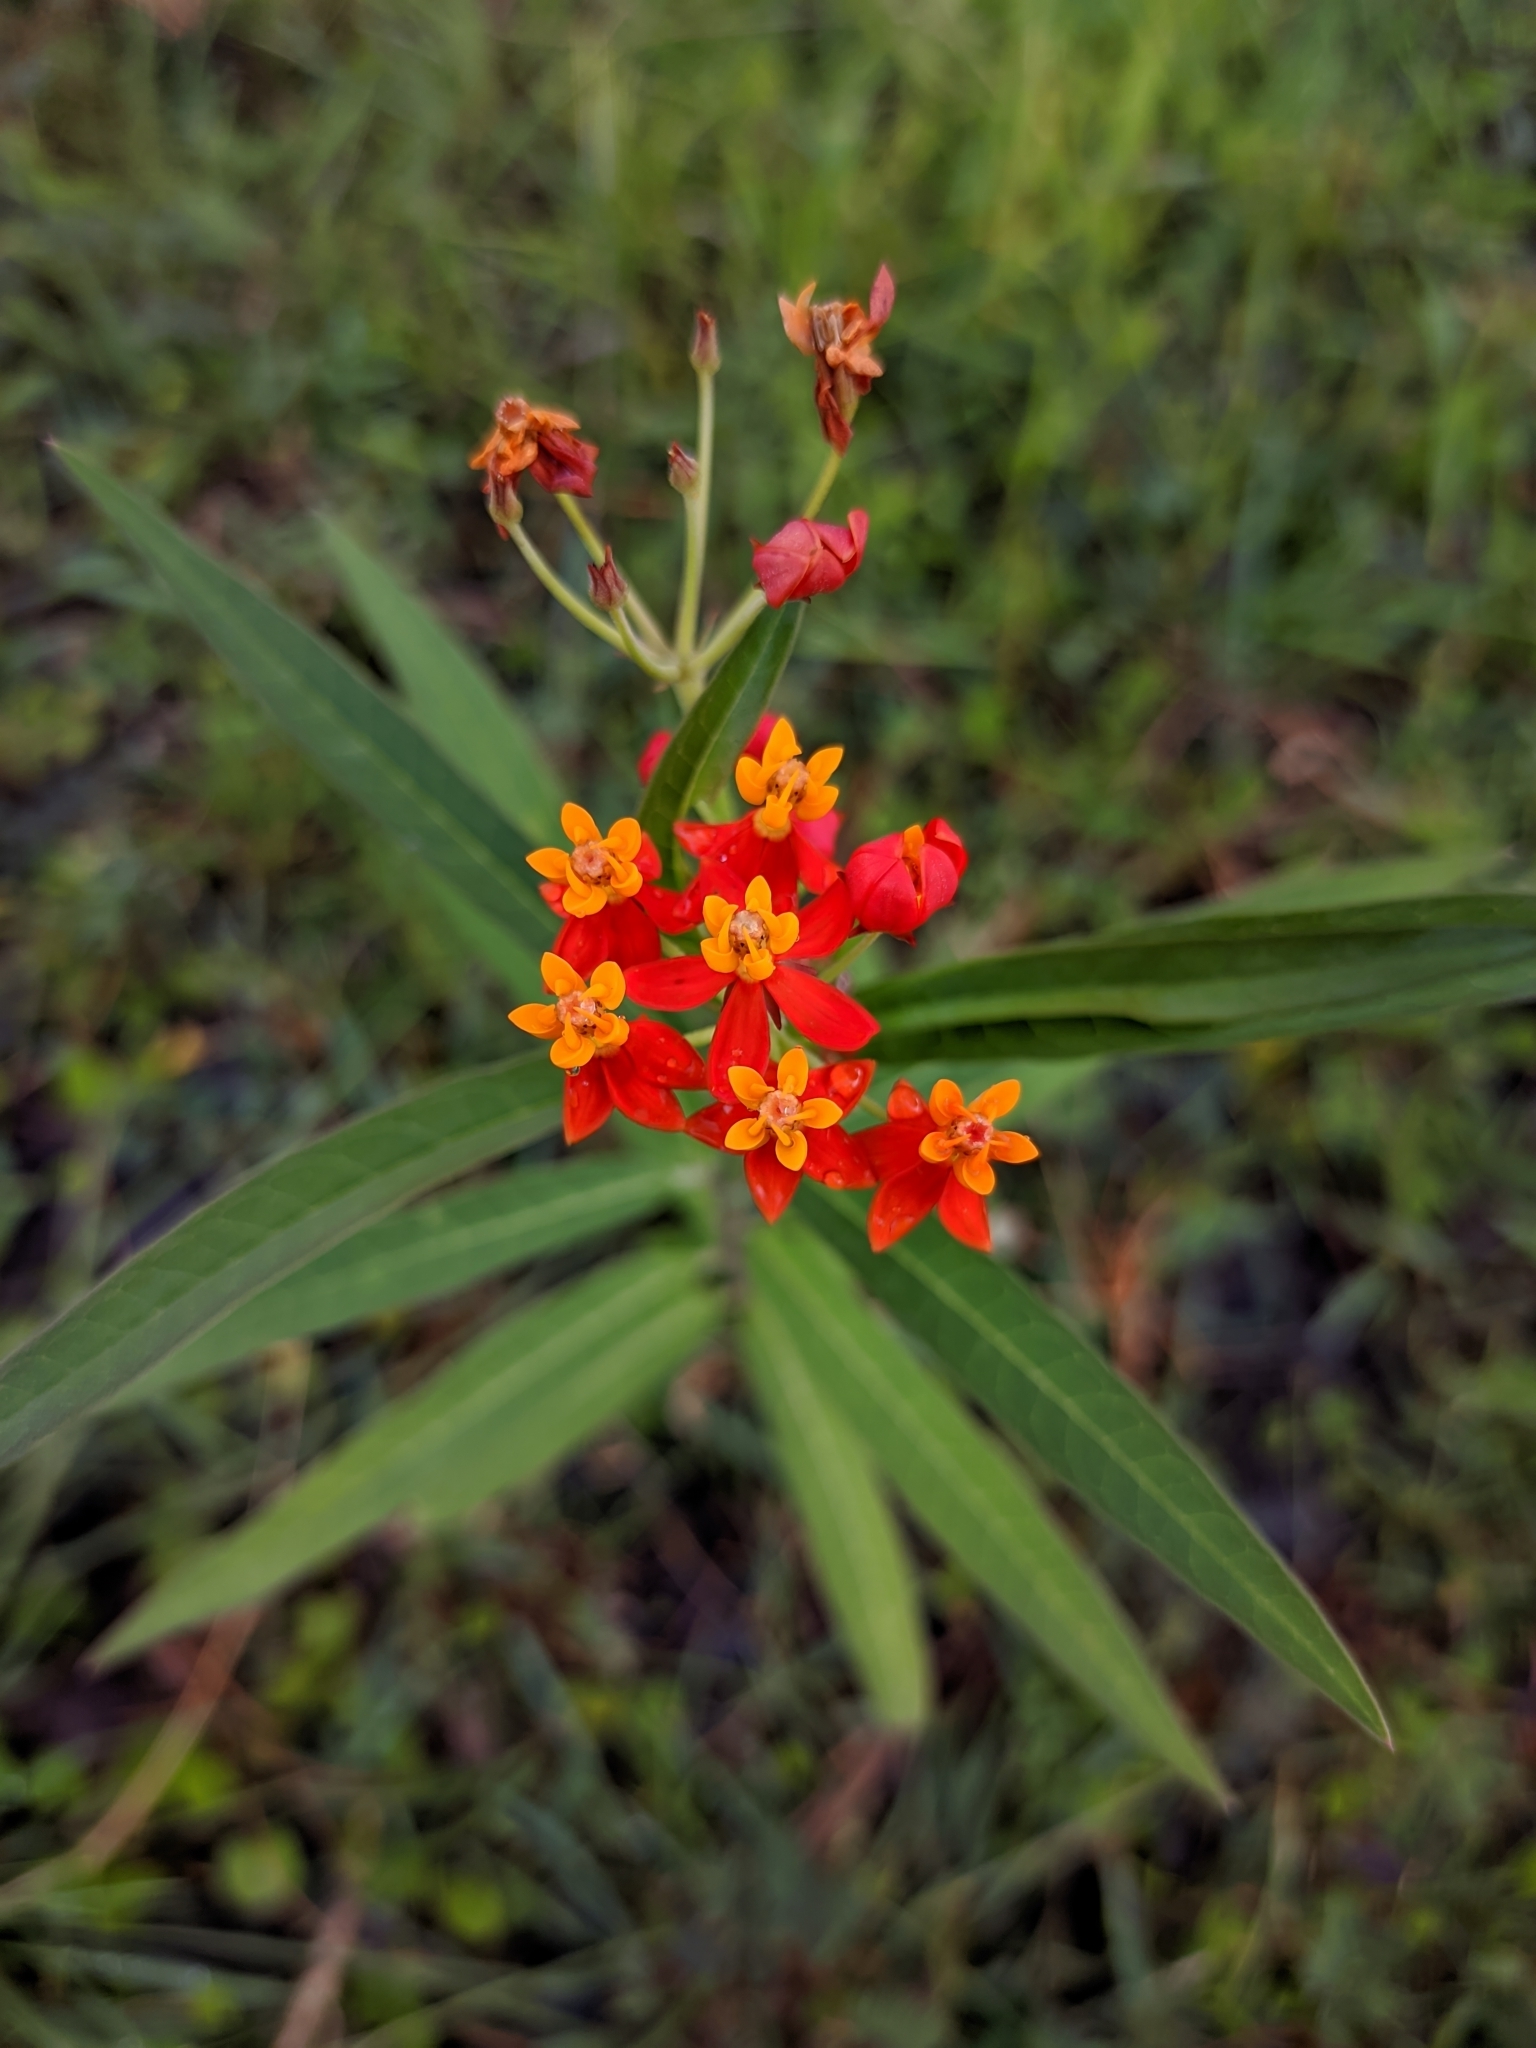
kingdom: Plantae
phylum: Tracheophyta
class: Magnoliopsida
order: Gentianales
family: Apocynaceae
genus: Asclepias
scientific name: Asclepias curassavica
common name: Bloodflower
